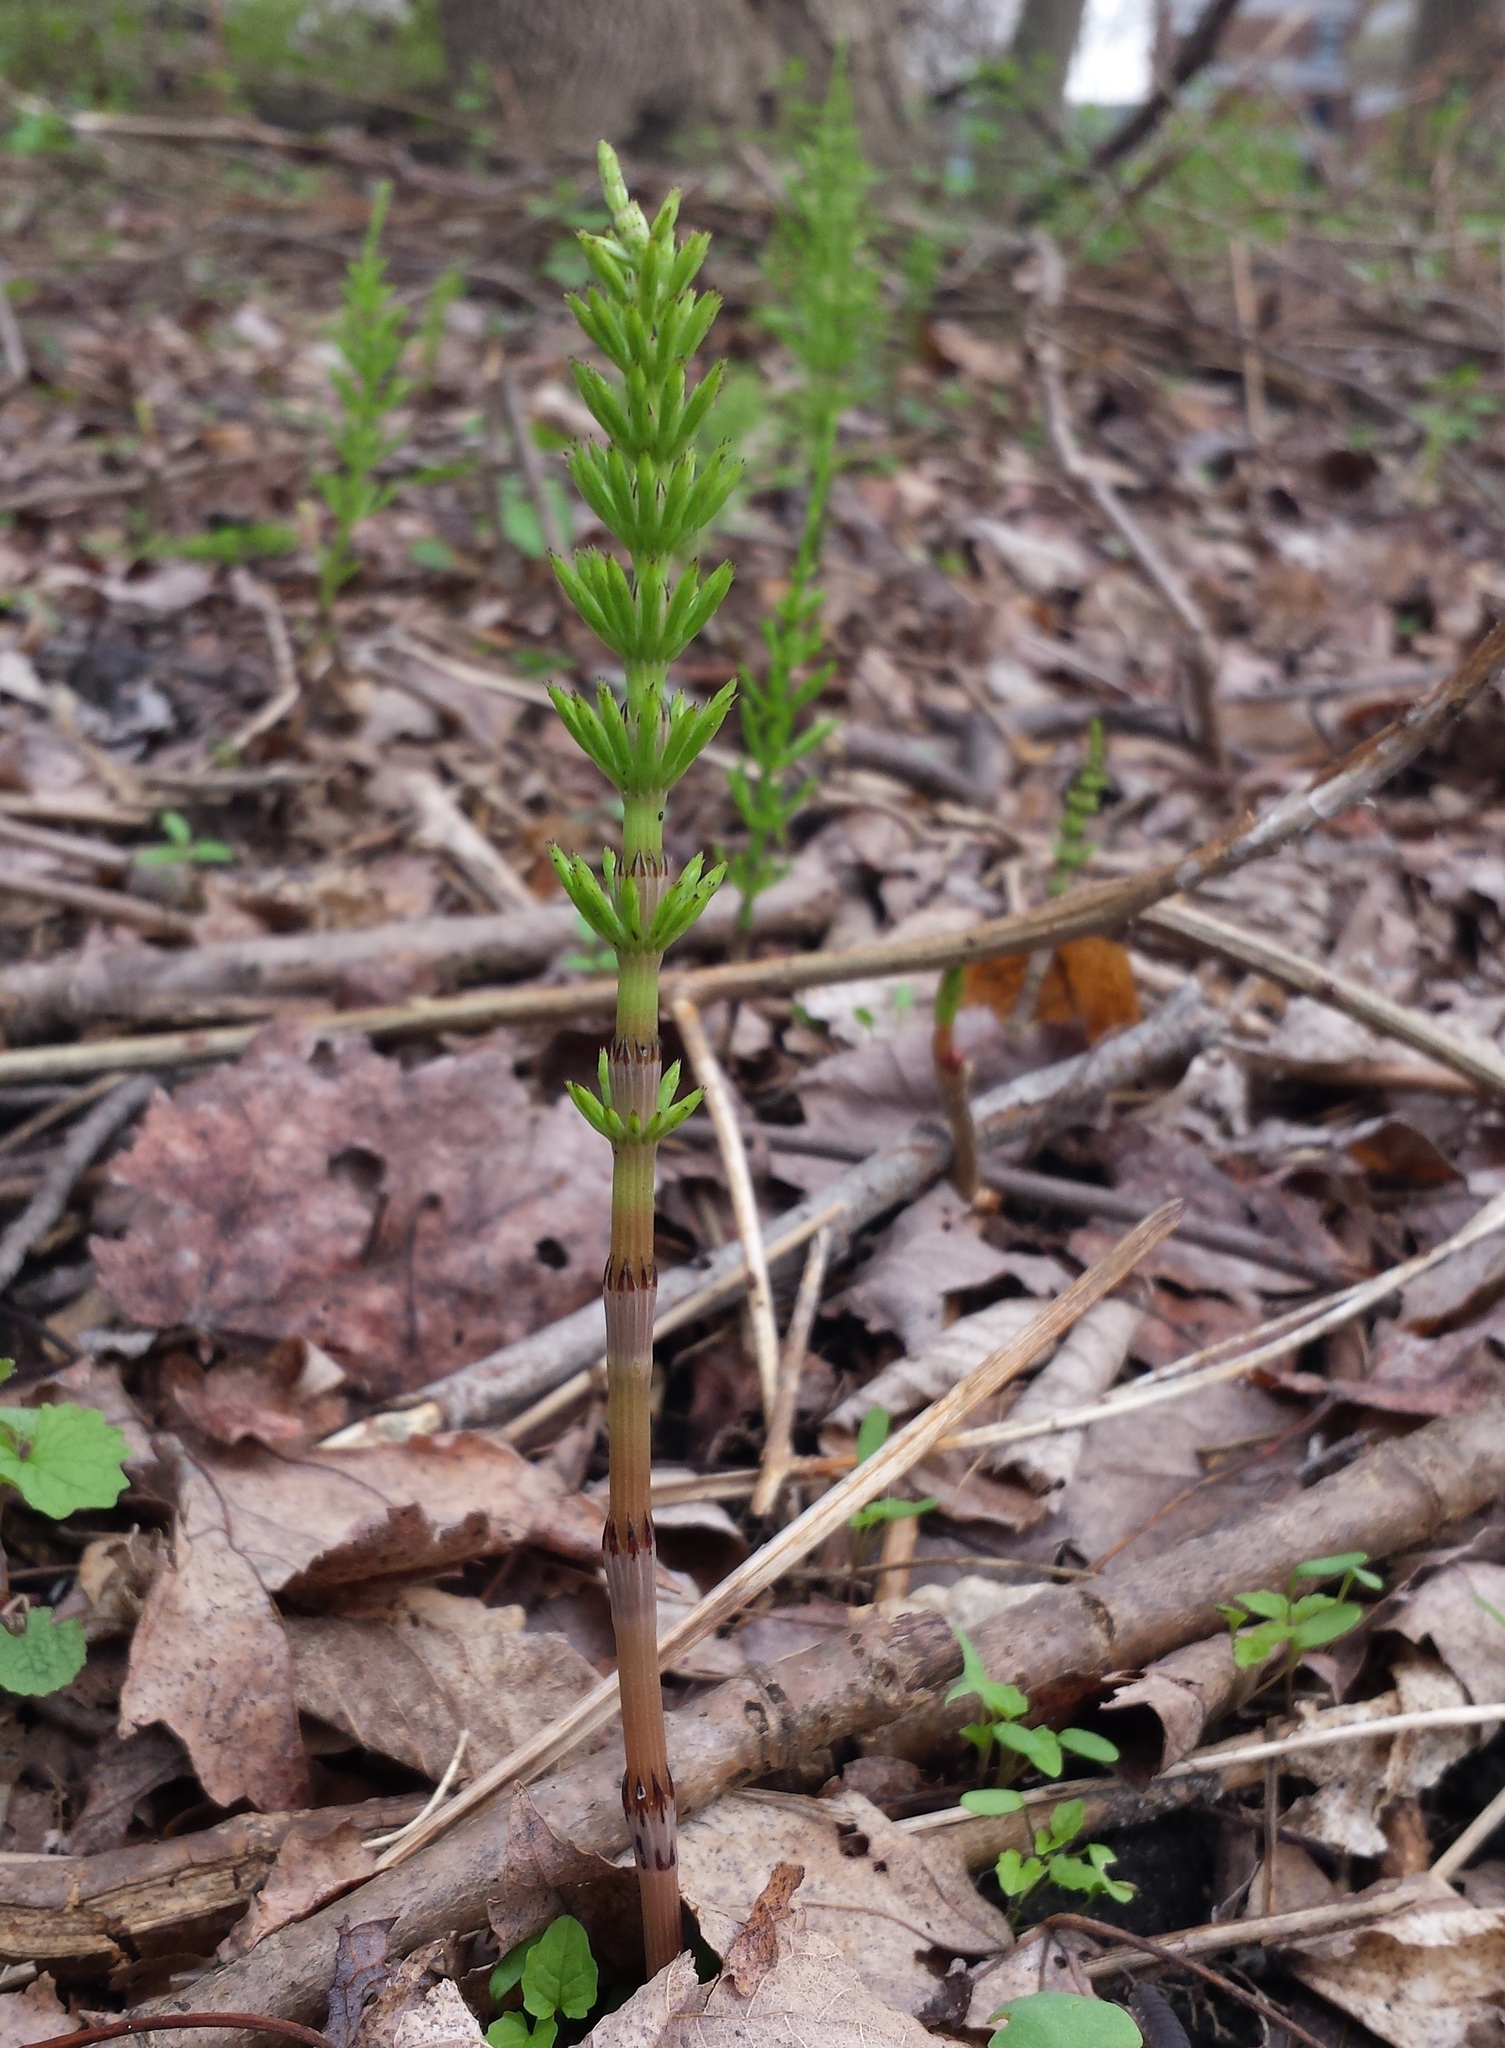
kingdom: Plantae
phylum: Tracheophyta
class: Polypodiopsida
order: Equisetales
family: Equisetaceae
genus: Equisetum
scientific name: Equisetum arvense
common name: Field horsetail
